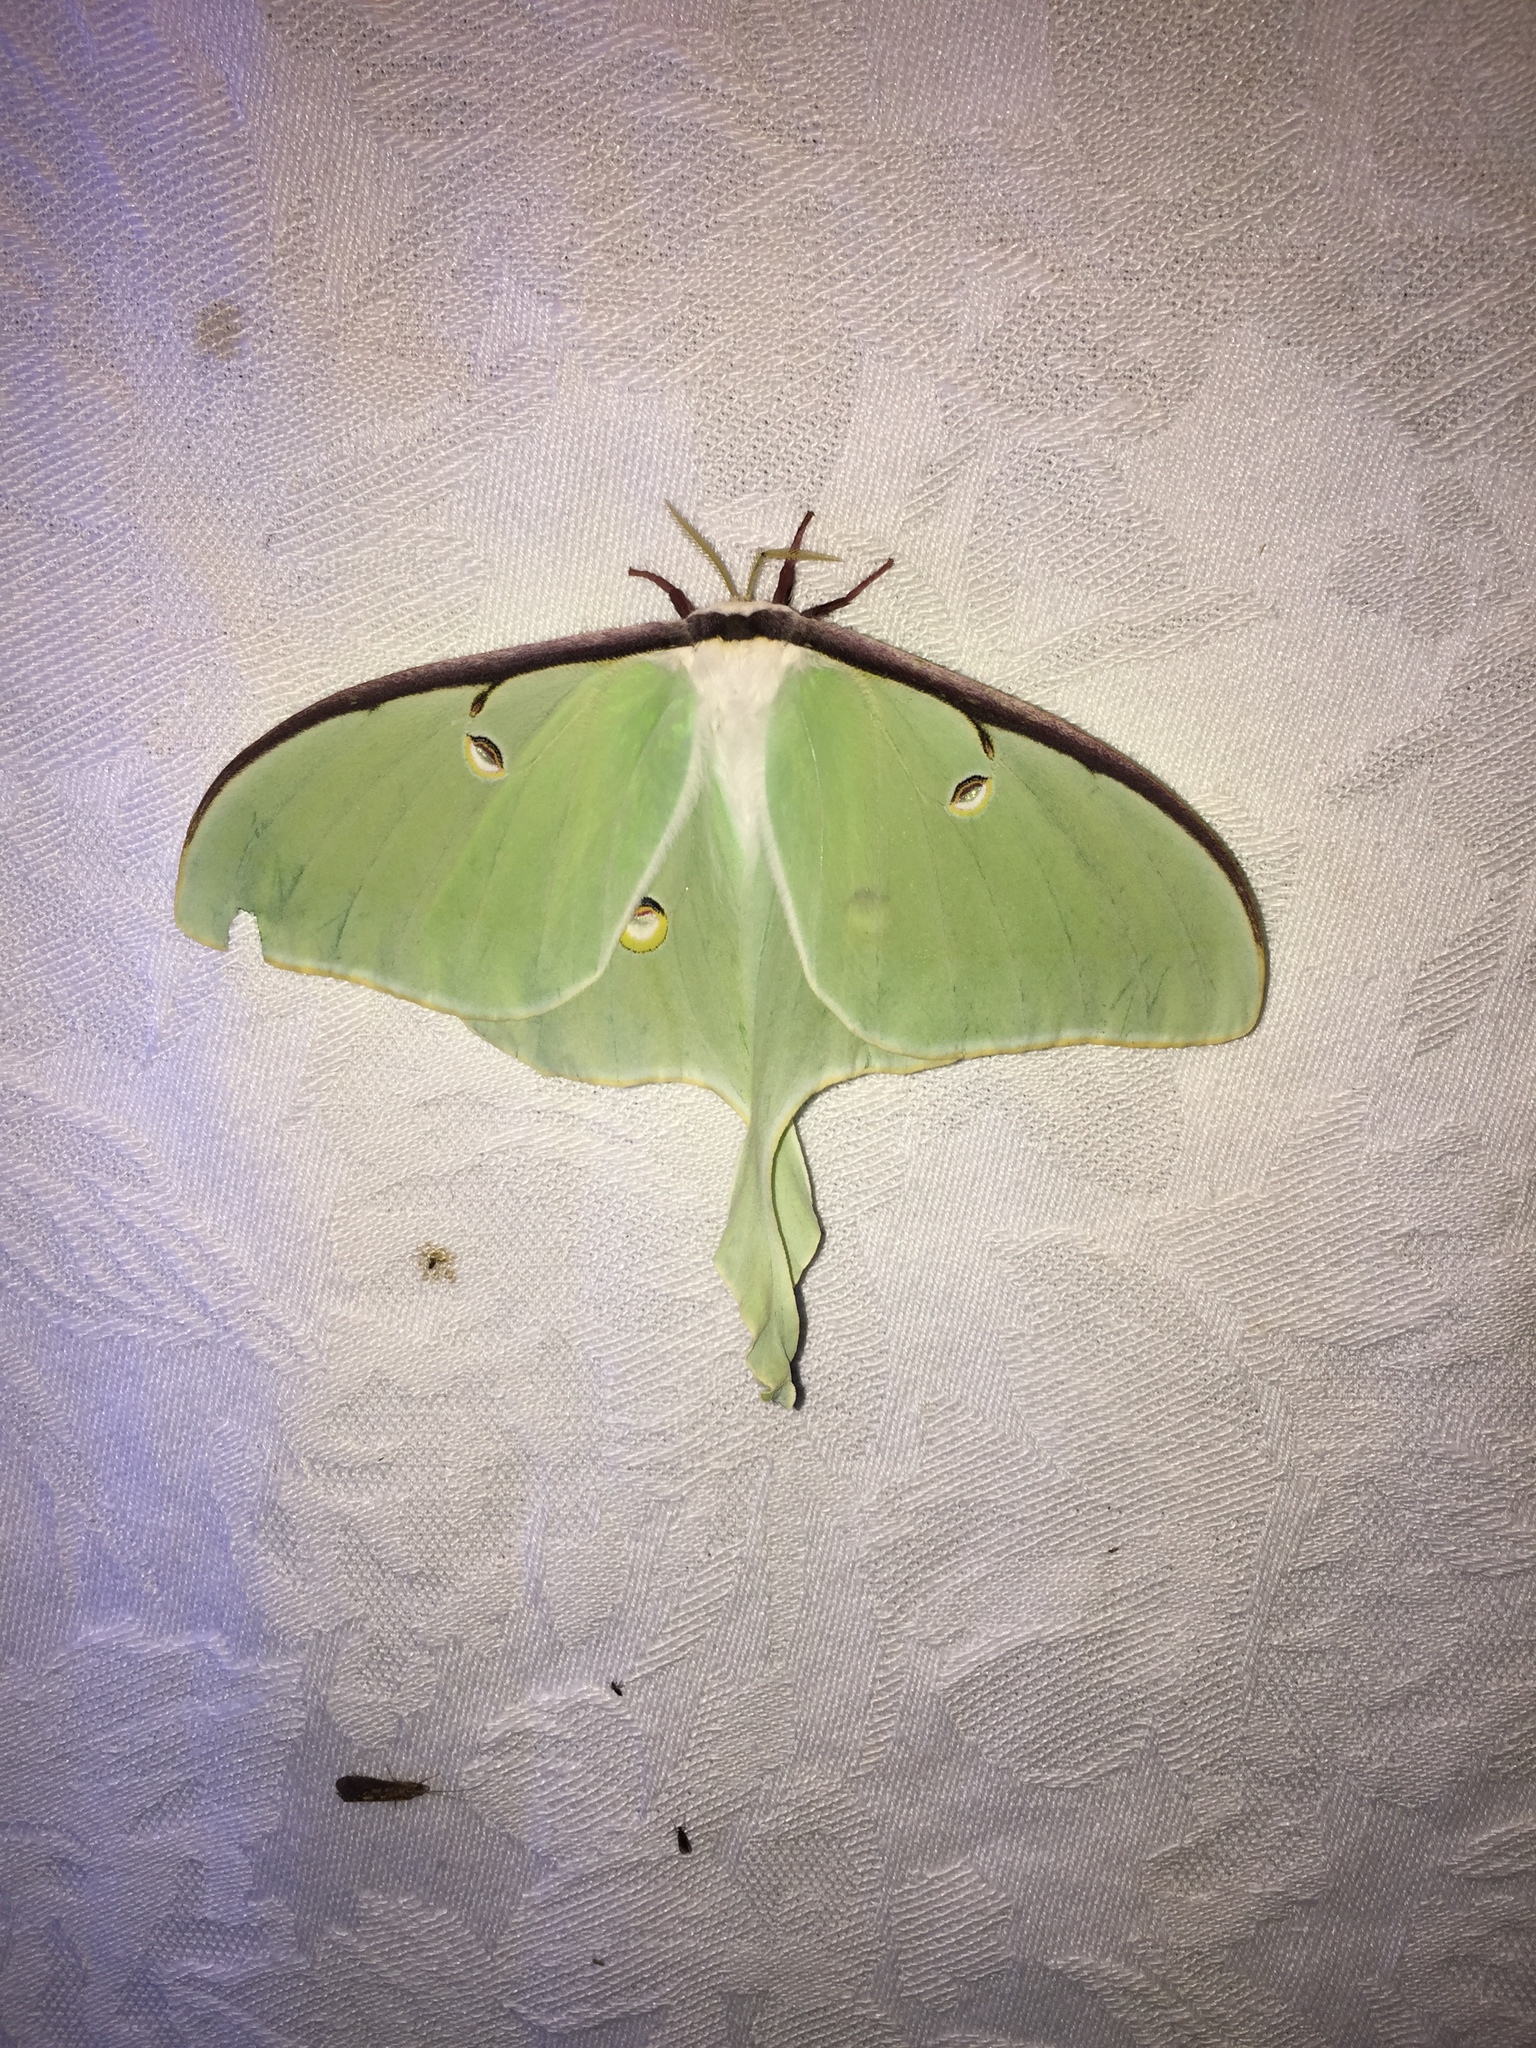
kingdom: Animalia
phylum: Arthropoda
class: Insecta
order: Lepidoptera
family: Saturniidae
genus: Actias
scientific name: Actias luna
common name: Luna moth
